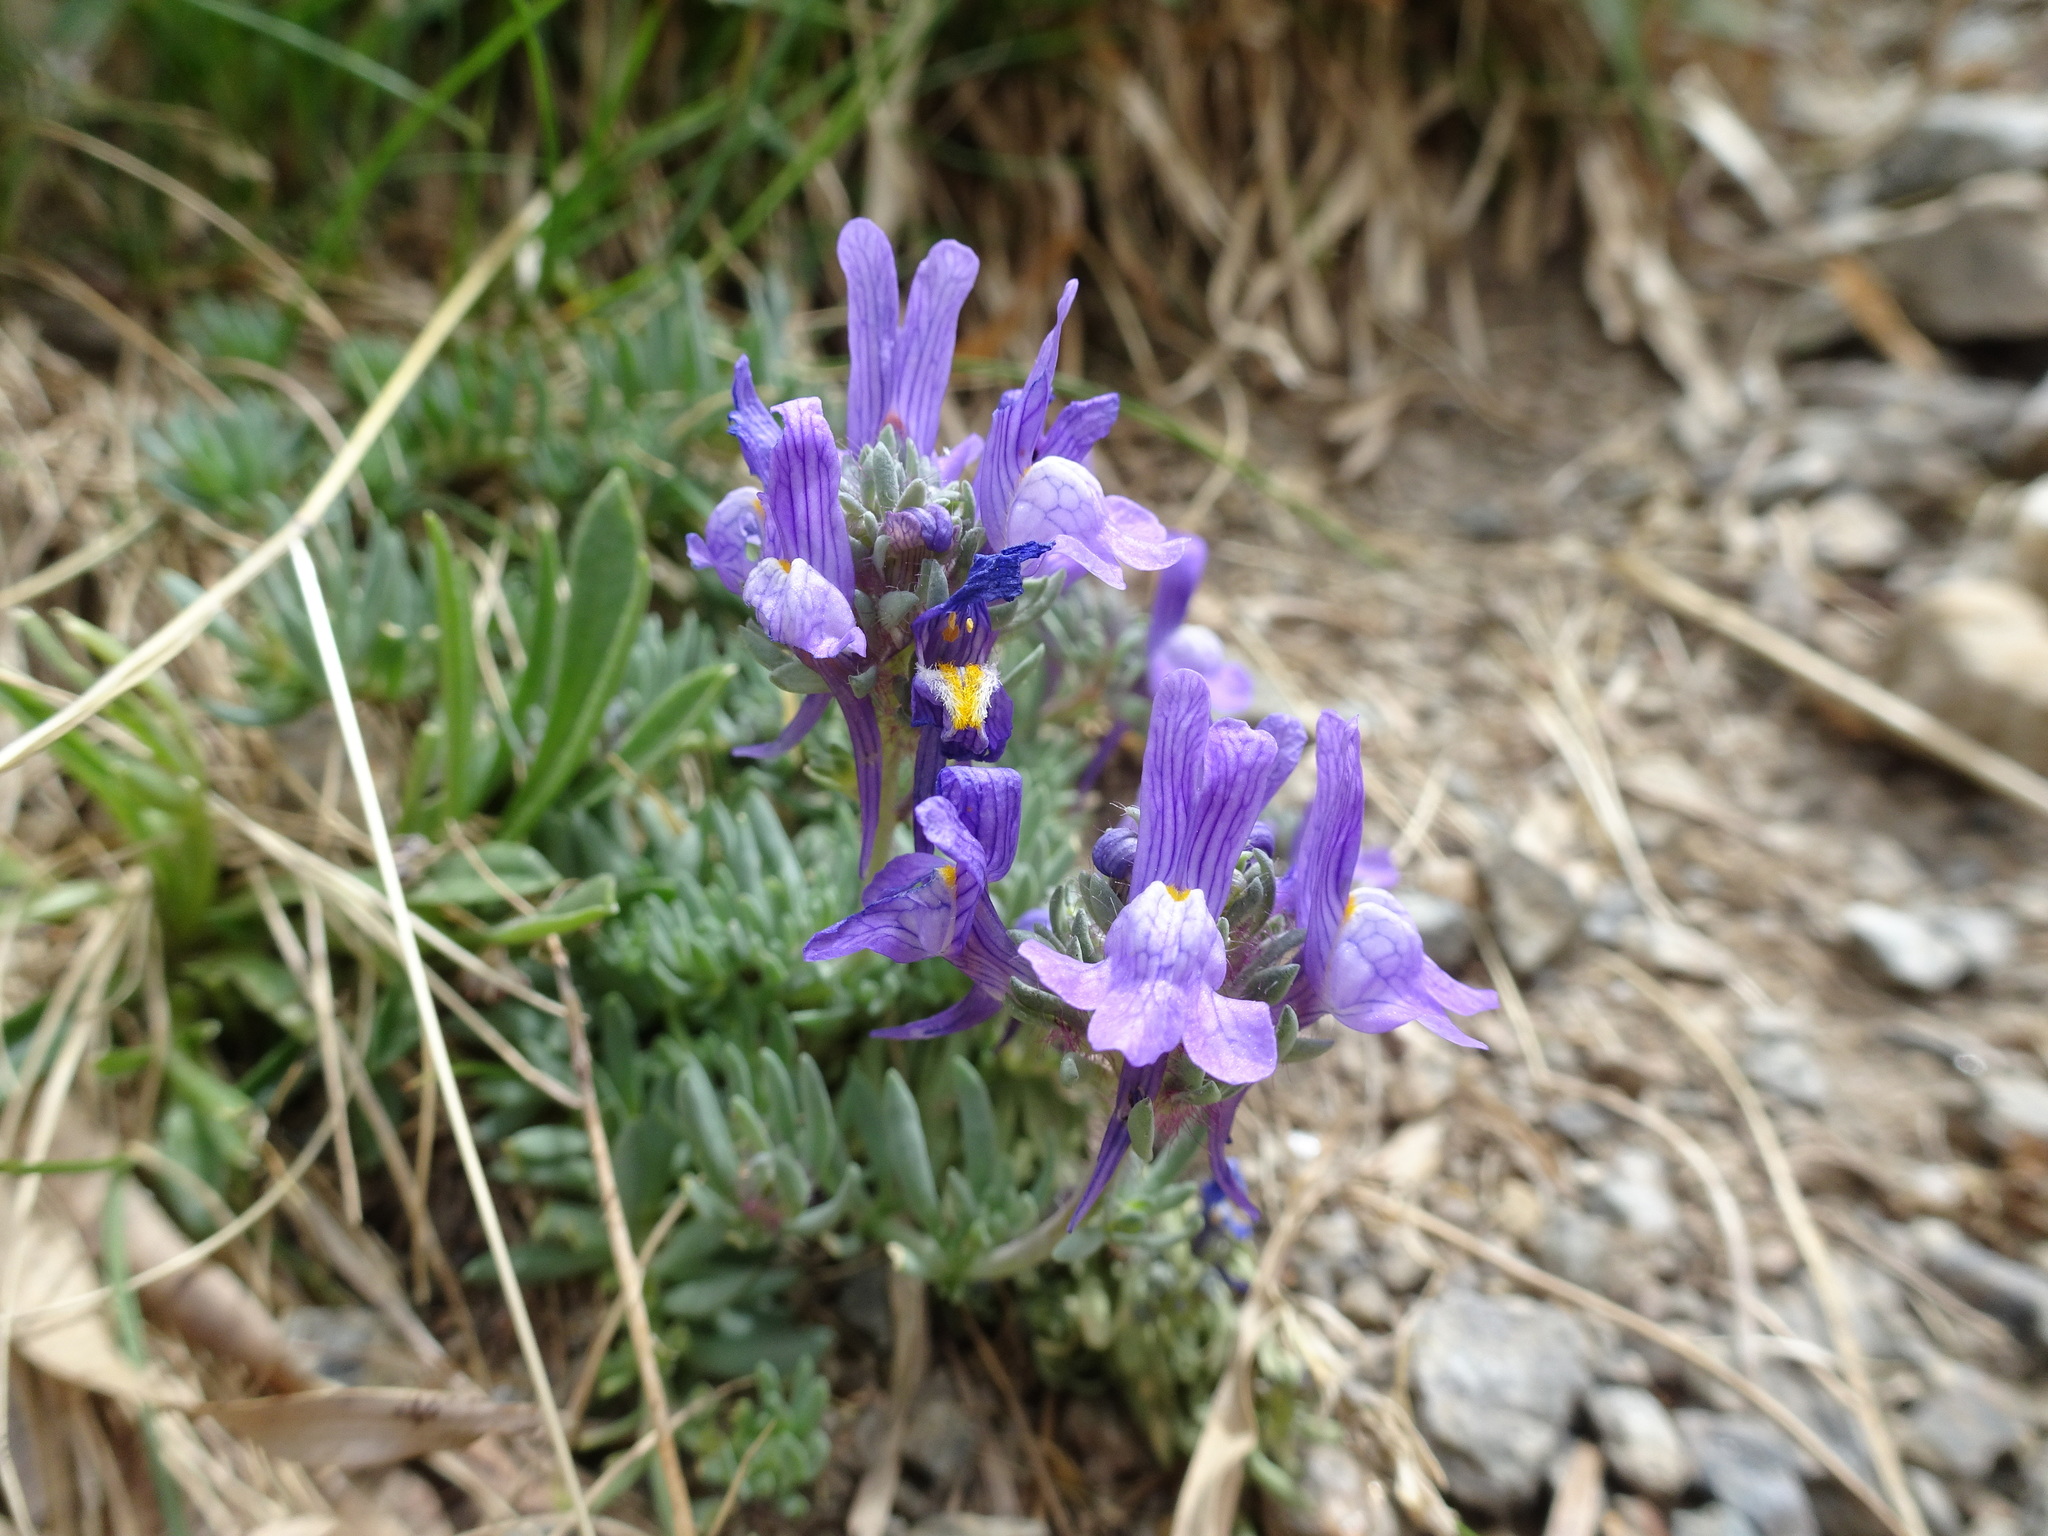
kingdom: Plantae
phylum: Tracheophyta
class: Magnoliopsida
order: Lamiales
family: Plantaginaceae
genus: Linaria
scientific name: Linaria alpina
